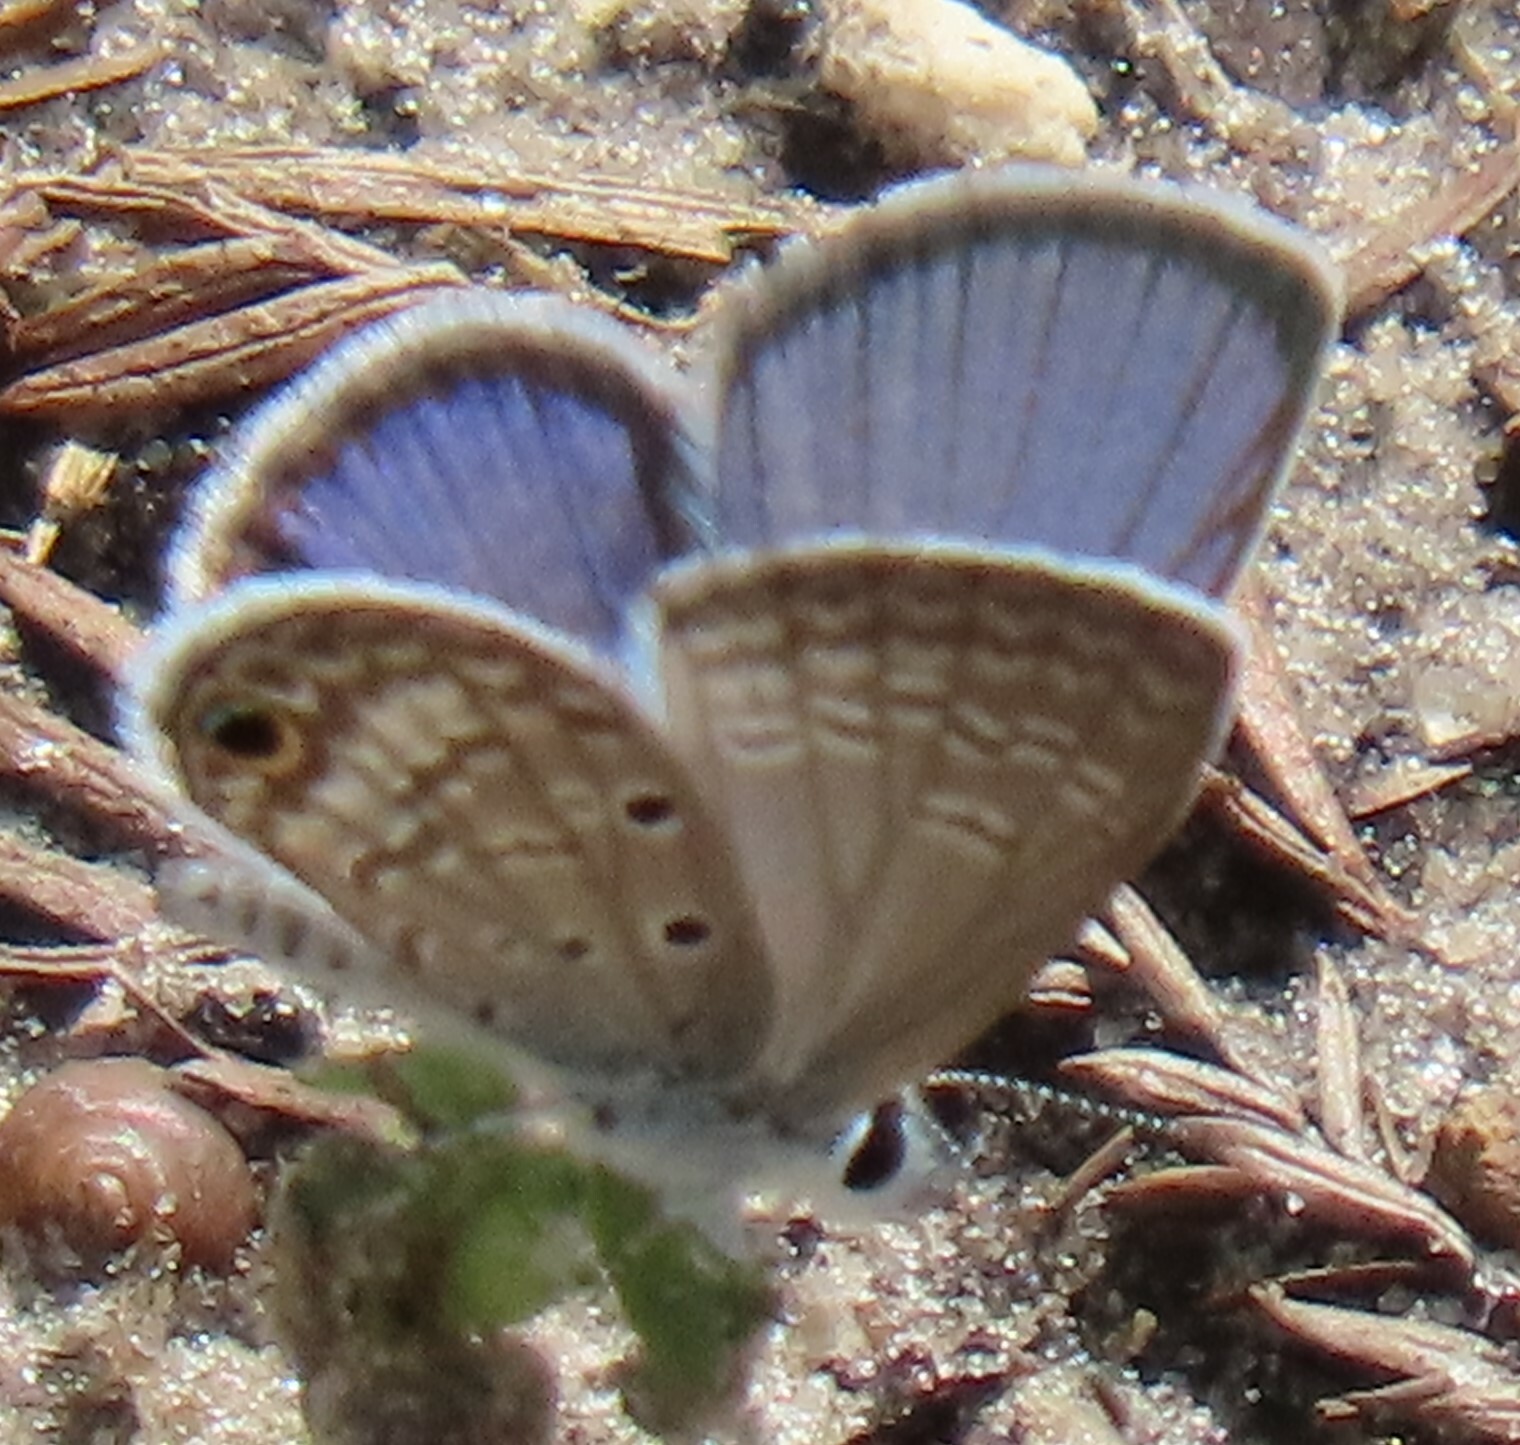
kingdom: Animalia
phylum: Arthropoda
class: Insecta
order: Lepidoptera
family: Lycaenidae
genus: Hemiargus
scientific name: Hemiargus ceraunus
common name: Ceraunus blue
